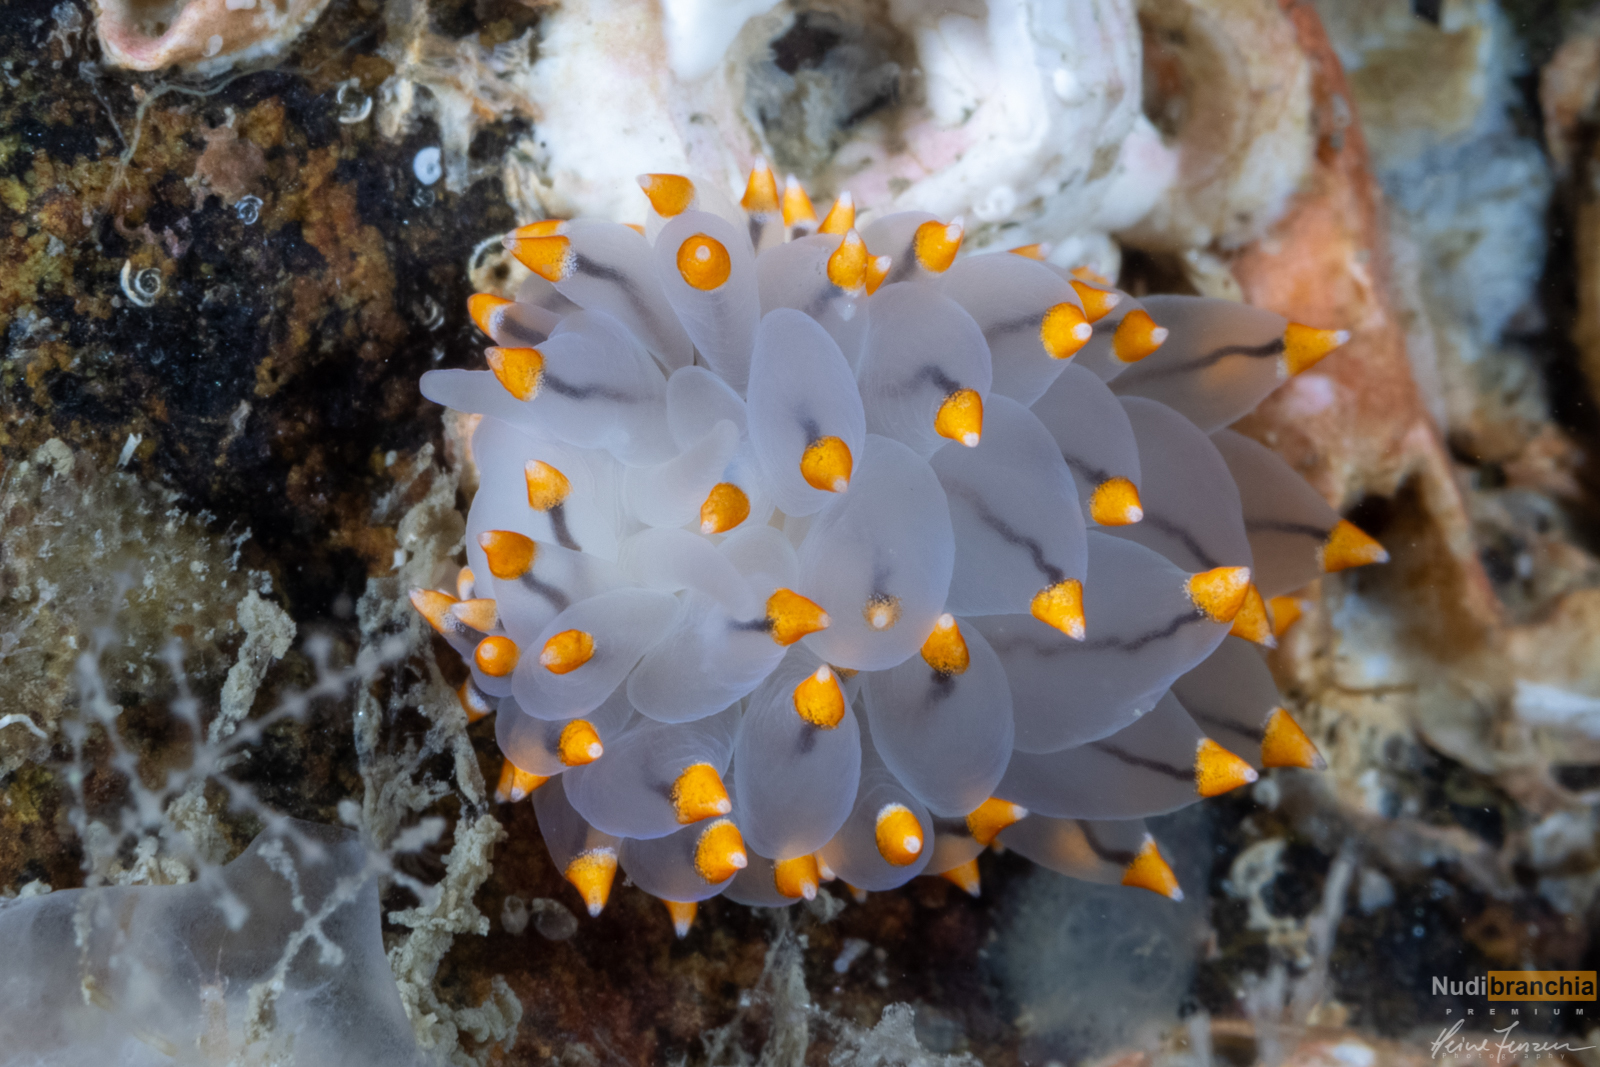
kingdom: Animalia
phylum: Mollusca
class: Gastropoda
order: Nudibranchia
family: Eubranchidae
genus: Eubranchus
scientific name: Eubranchus tricolor
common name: Painted balloon aeolis
